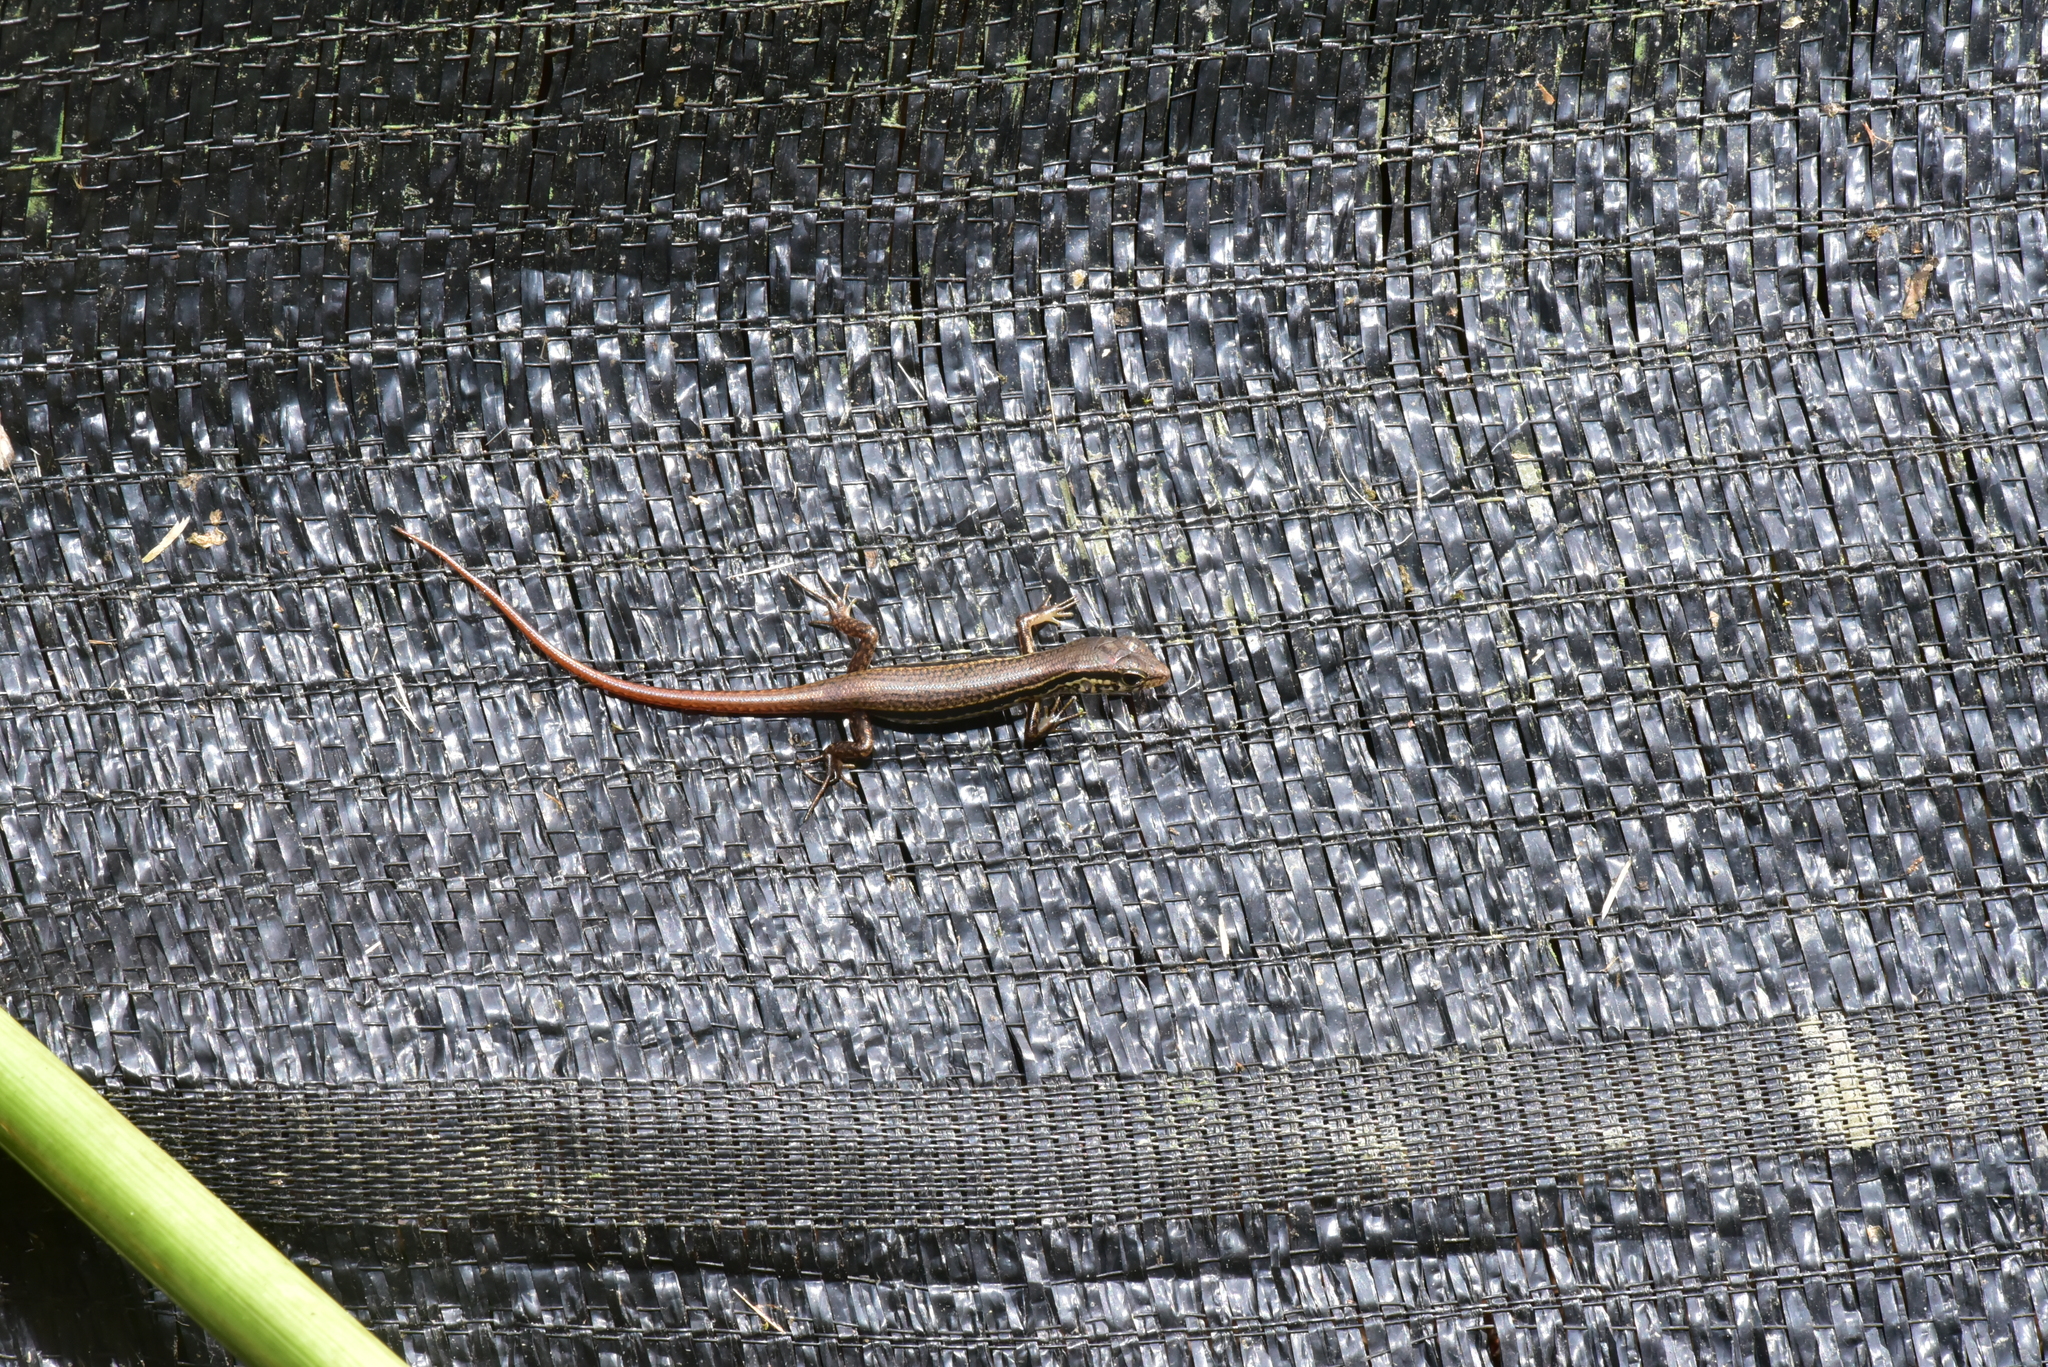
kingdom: Animalia
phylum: Chordata
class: Squamata
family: Scincidae
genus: Sphenomorphus
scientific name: Sphenomorphus indicus
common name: Himalayan forest skink
